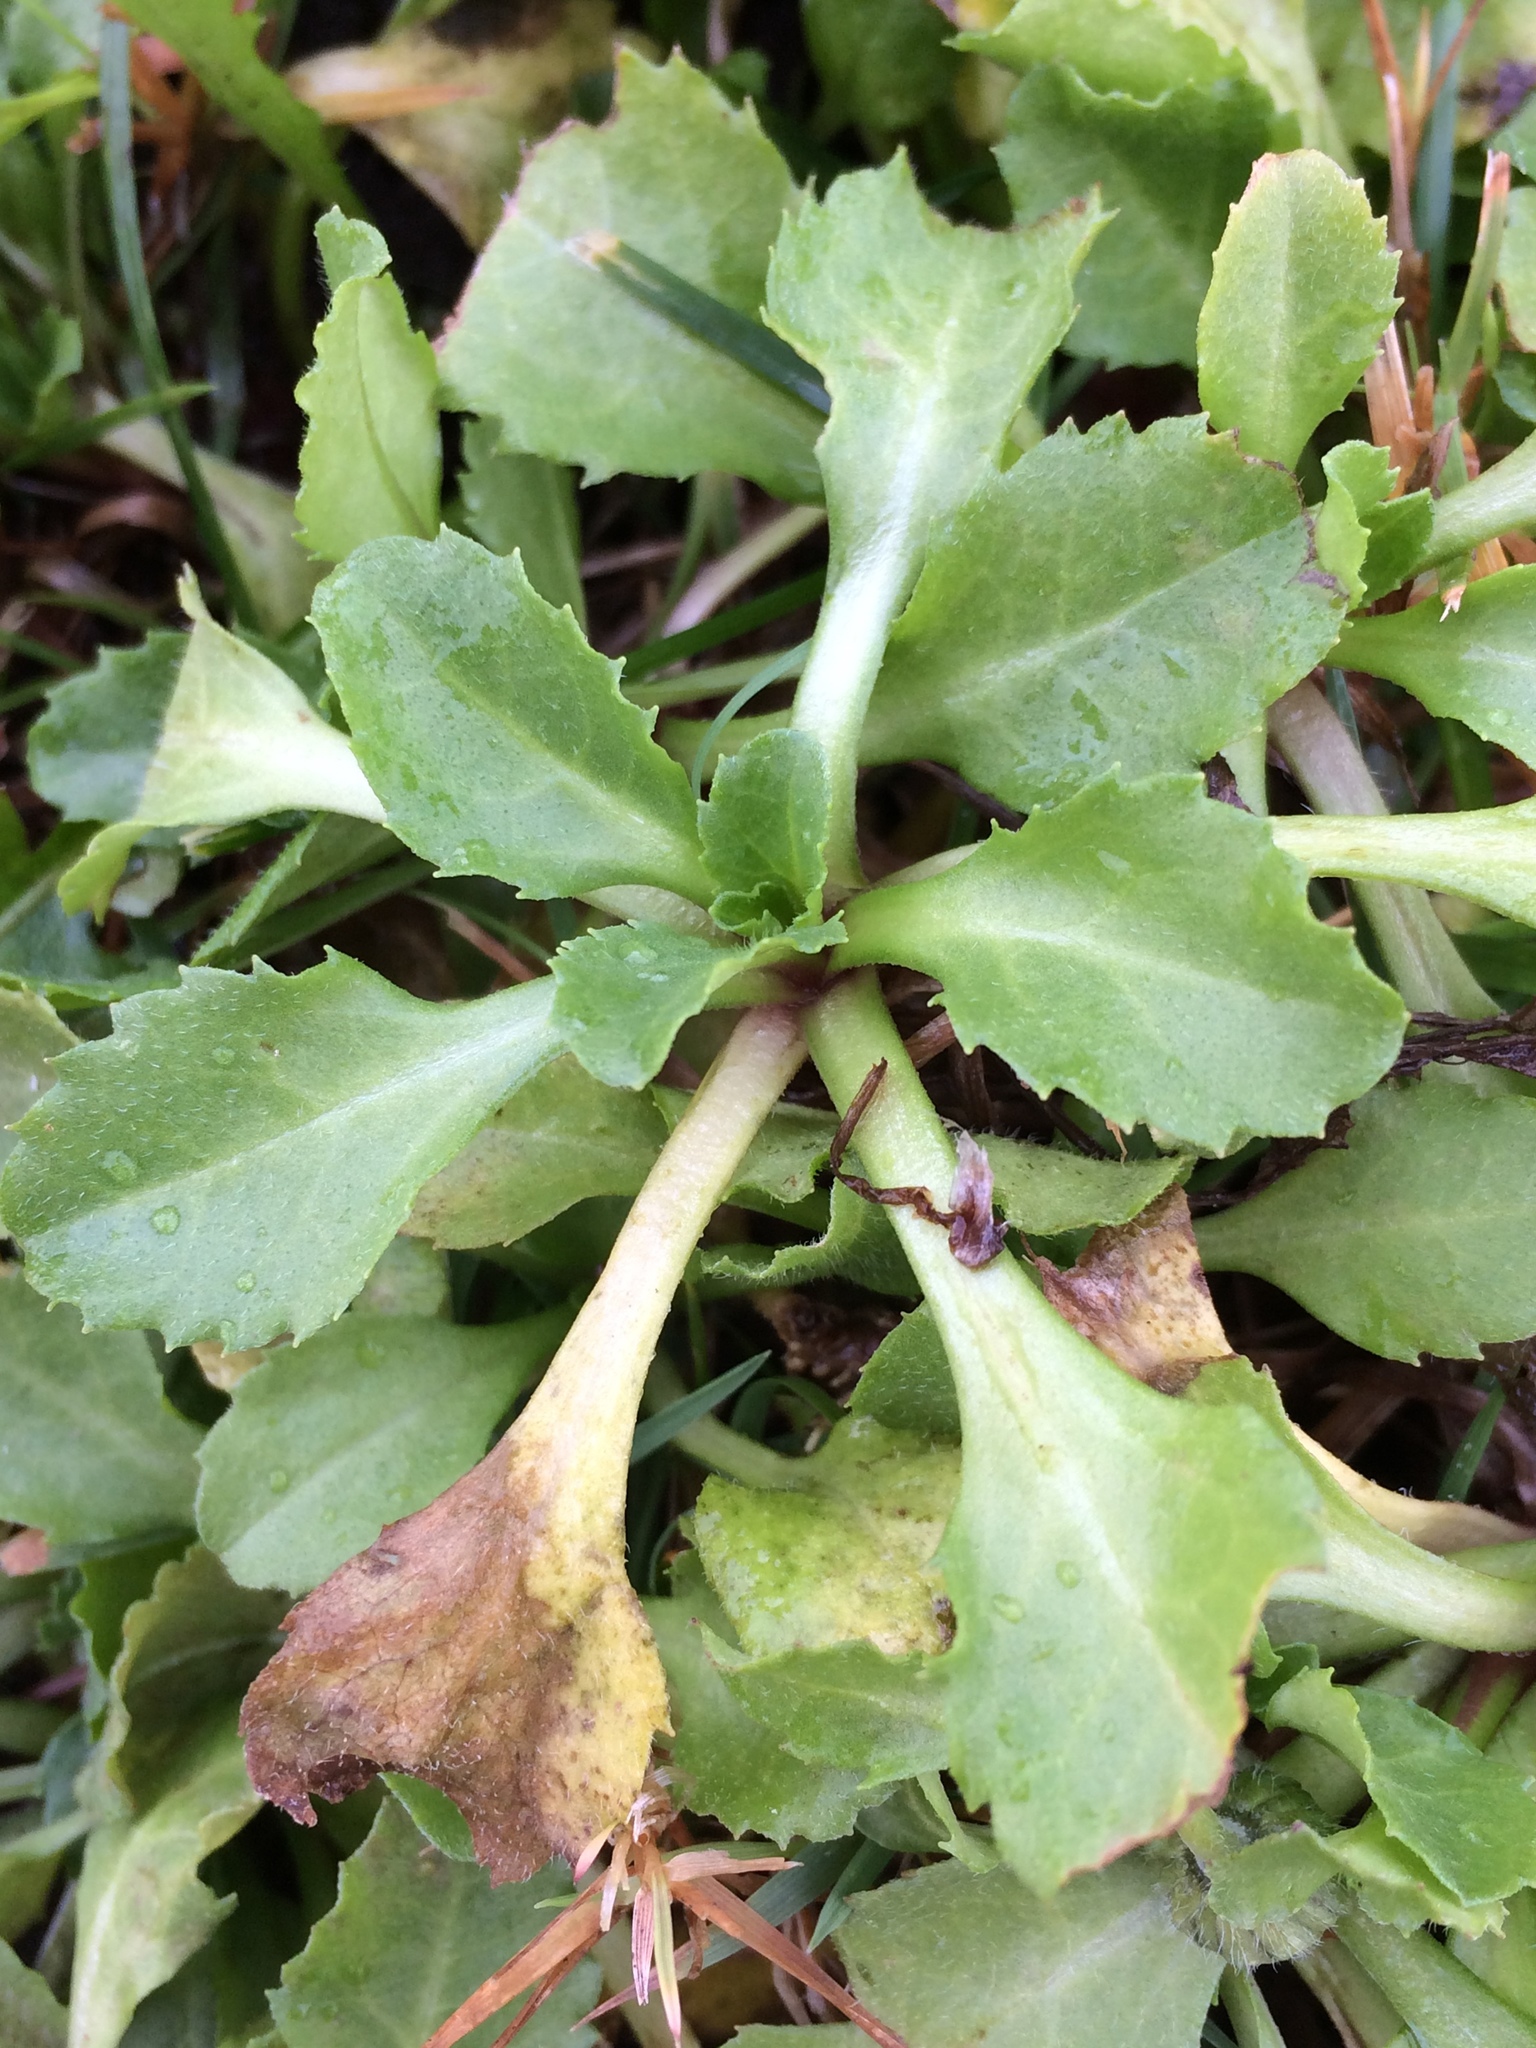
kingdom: Plantae
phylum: Tracheophyta
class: Magnoliopsida
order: Asterales
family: Asteraceae
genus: Bellis
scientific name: Bellis perennis
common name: Lawndaisy
